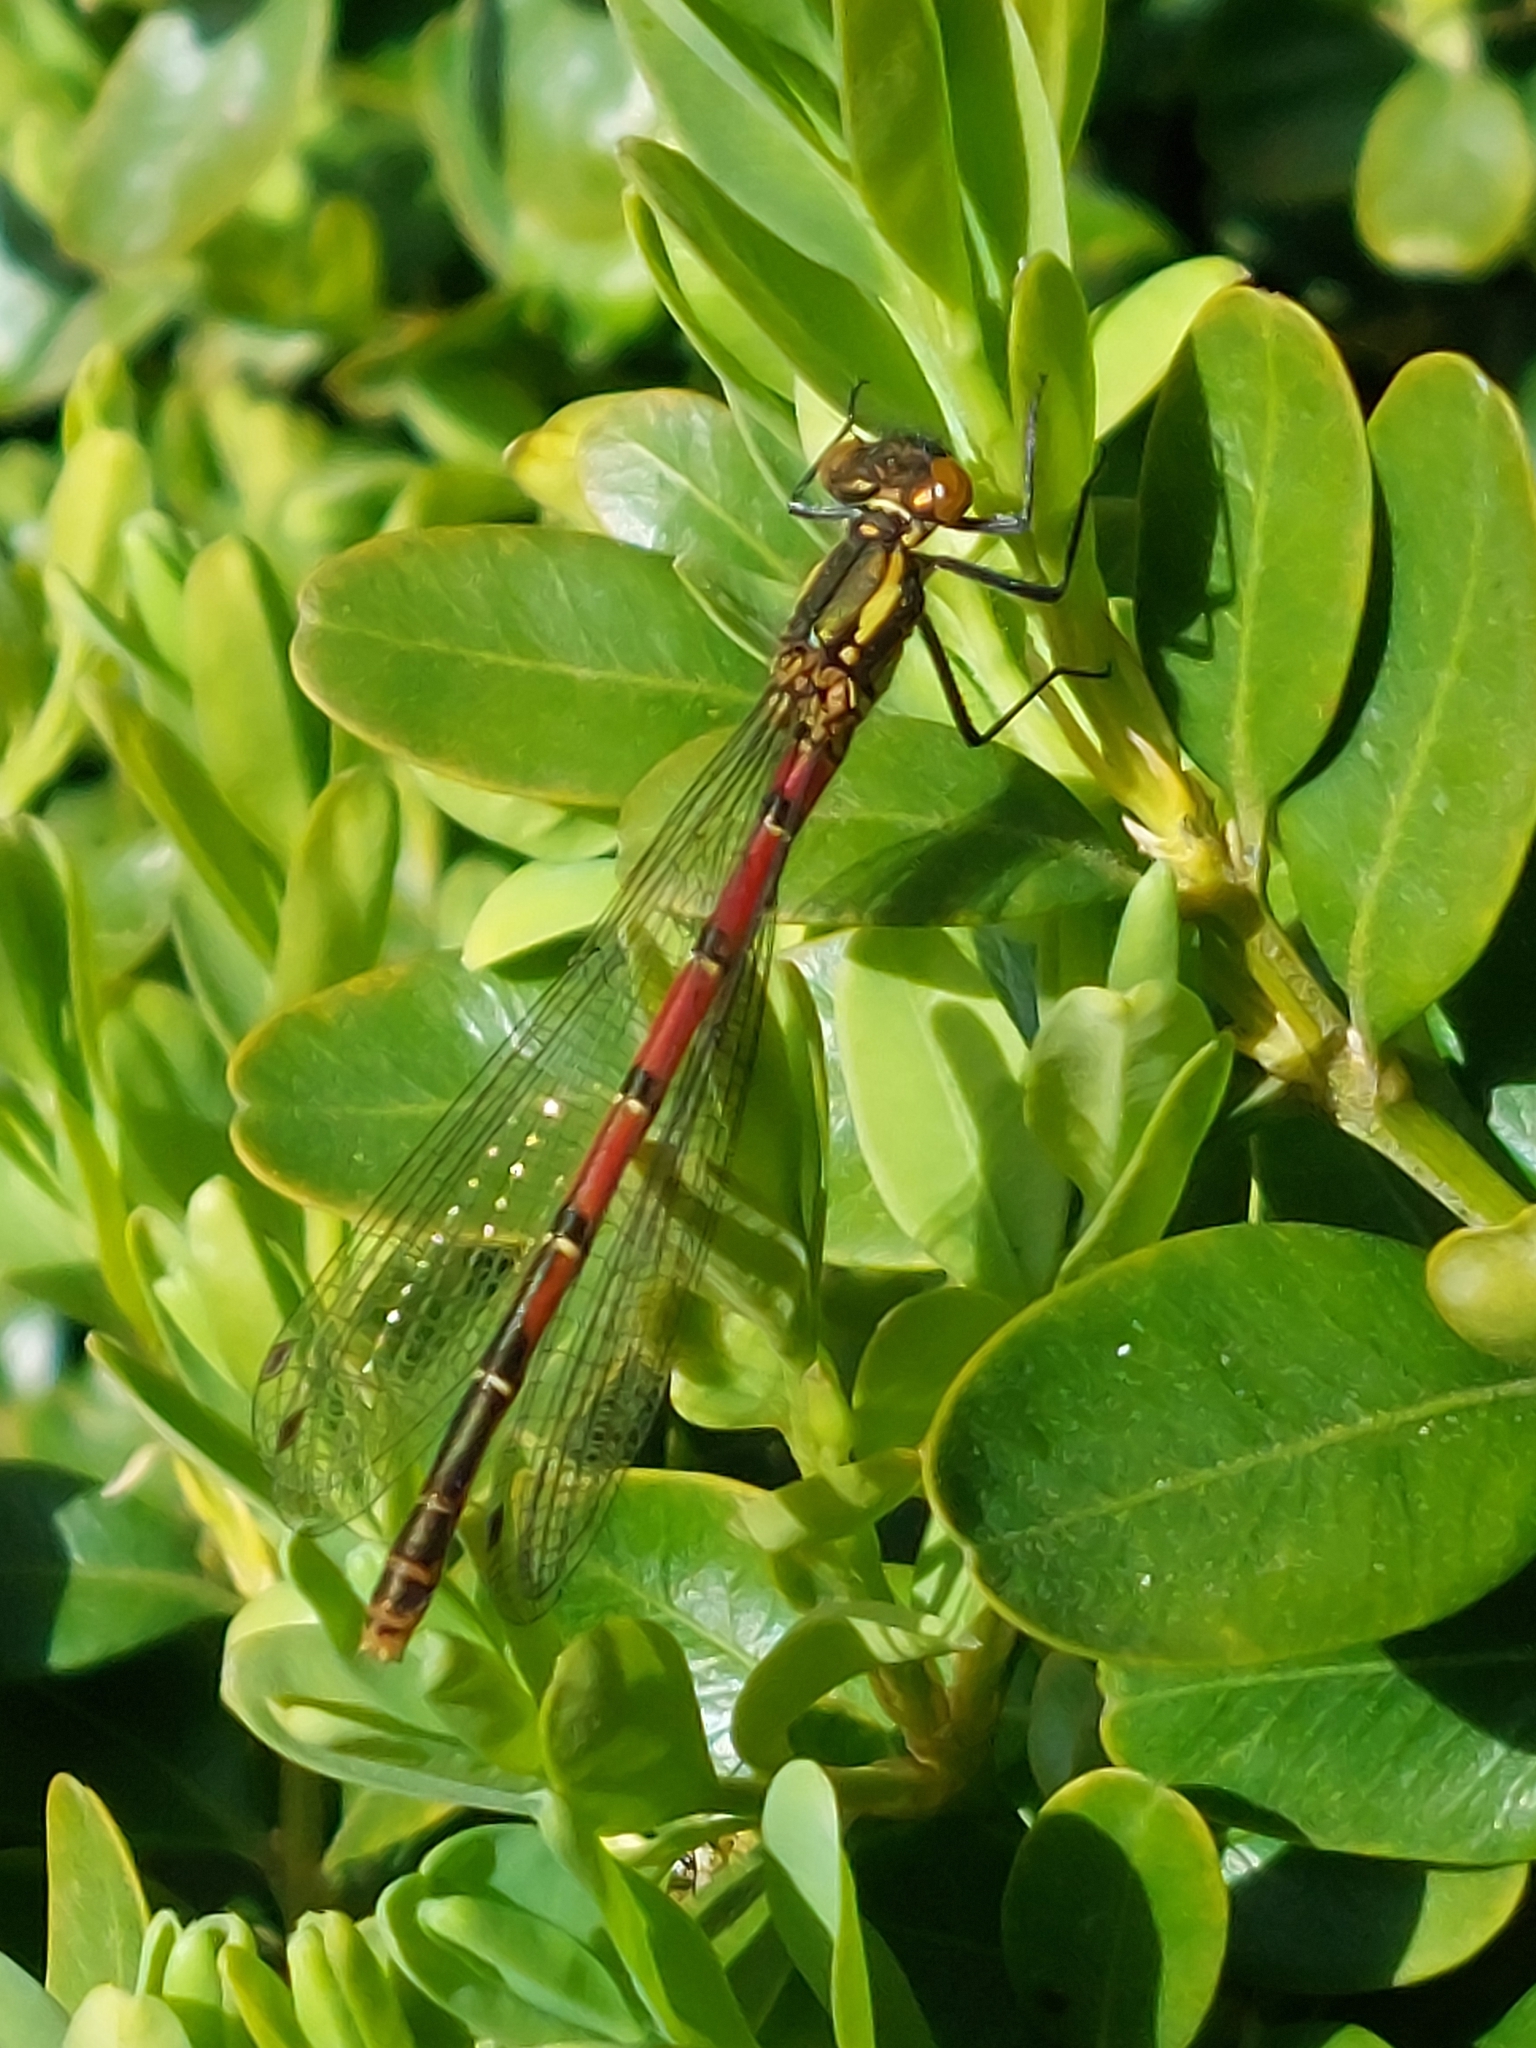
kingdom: Animalia
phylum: Arthropoda
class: Insecta
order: Odonata
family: Coenagrionidae
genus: Pyrrhosoma
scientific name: Pyrrhosoma nymphula
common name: Large red damsel
